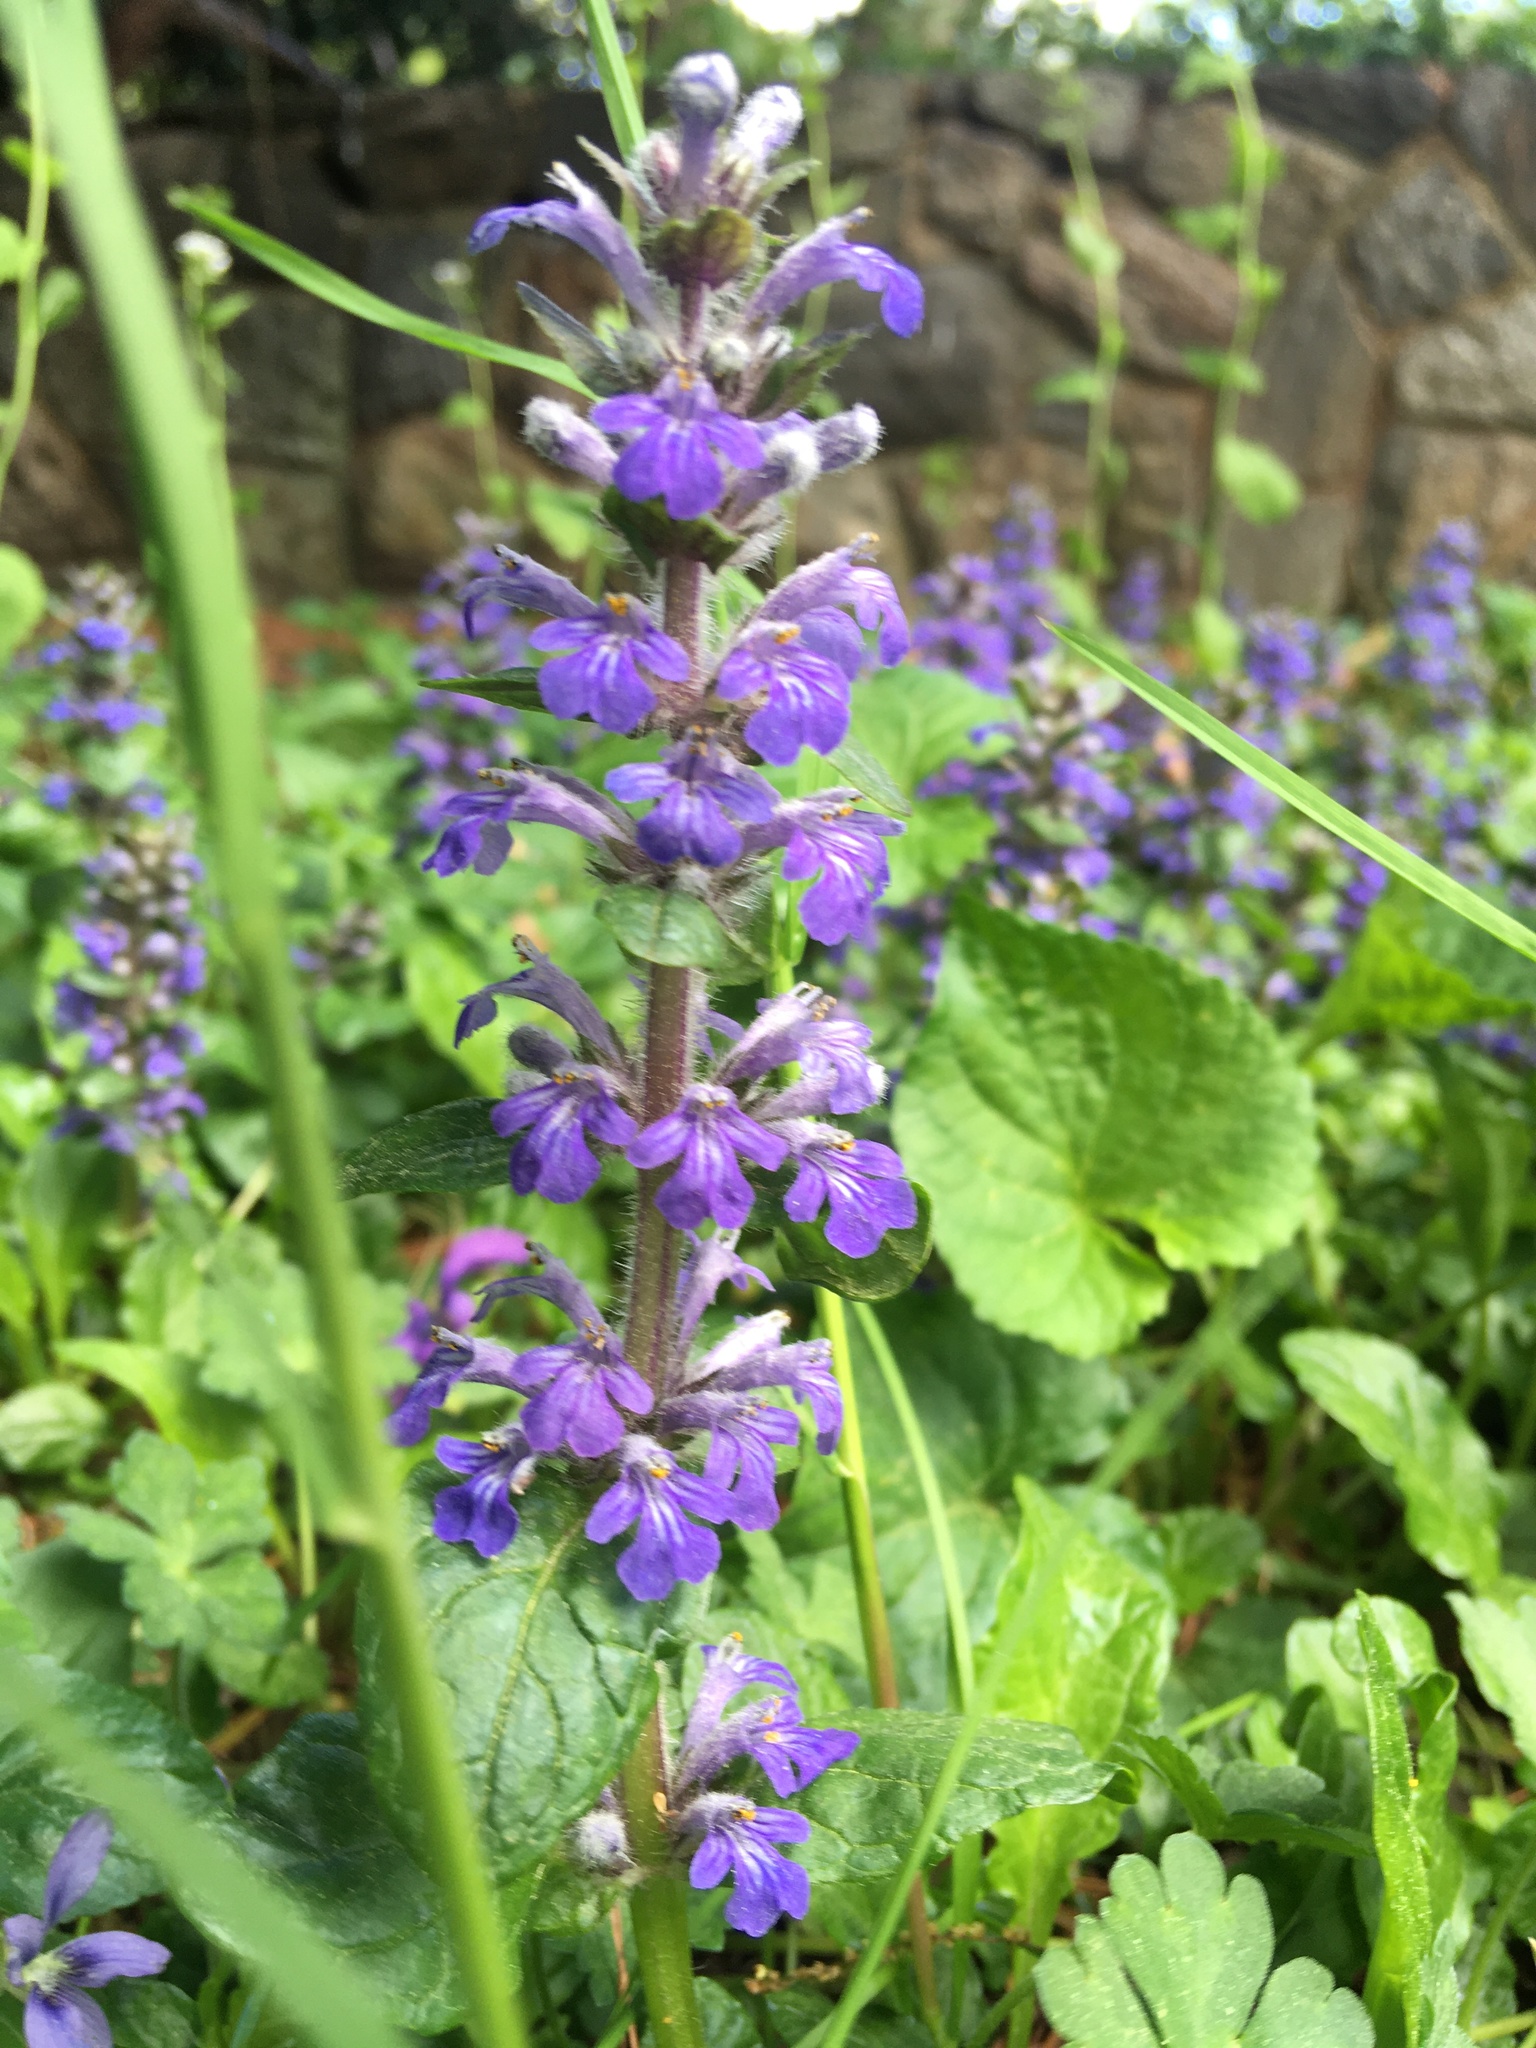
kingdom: Plantae
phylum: Tracheophyta
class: Magnoliopsida
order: Lamiales
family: Lamiaceae
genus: Ajuga
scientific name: Ajuga reptans
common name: Bugle
